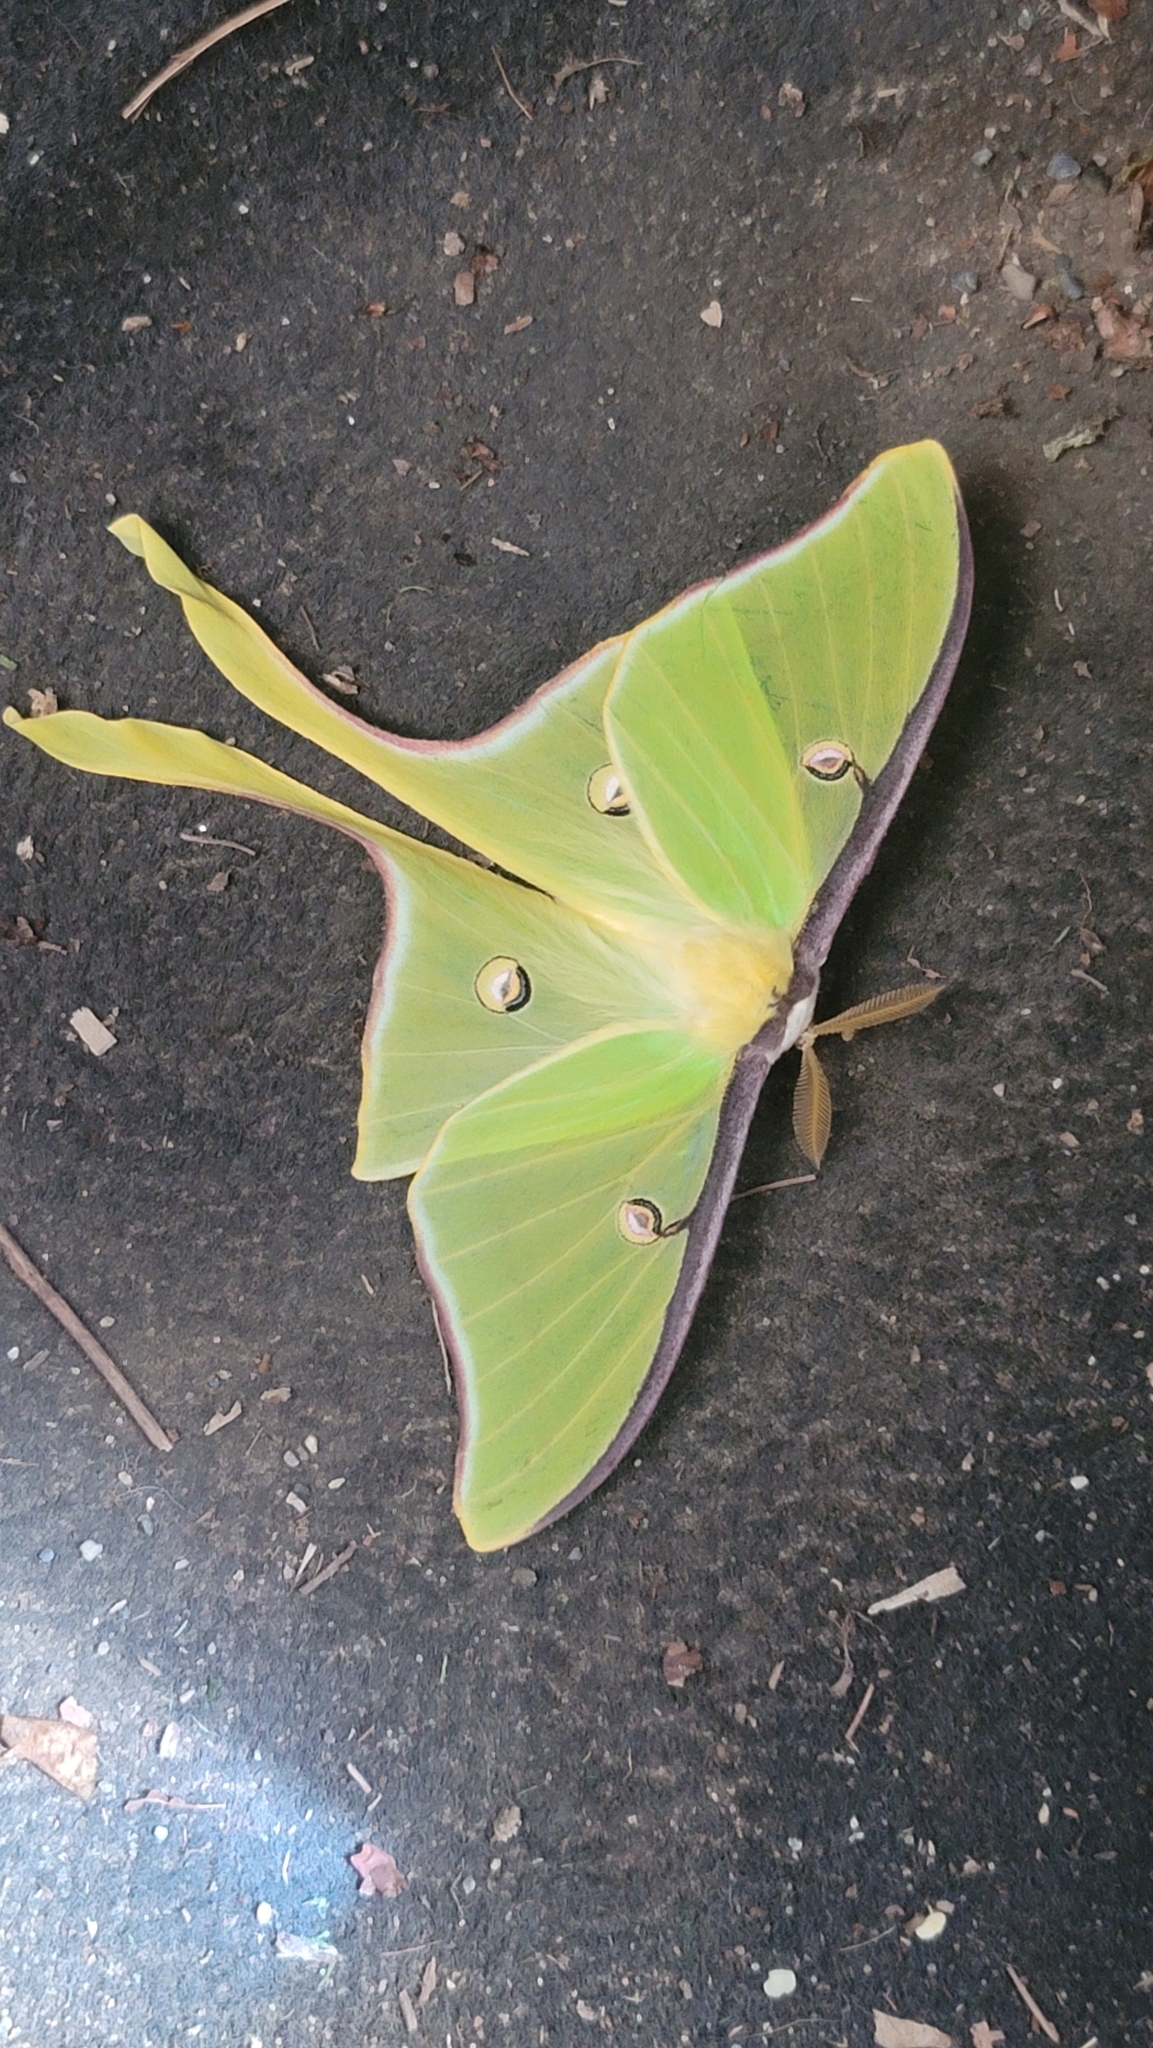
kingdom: Animalia
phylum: Arthropoda
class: Insecta
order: Lepidoptera
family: Saturniidae
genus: Actias
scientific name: Actias luna
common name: Luna moth
